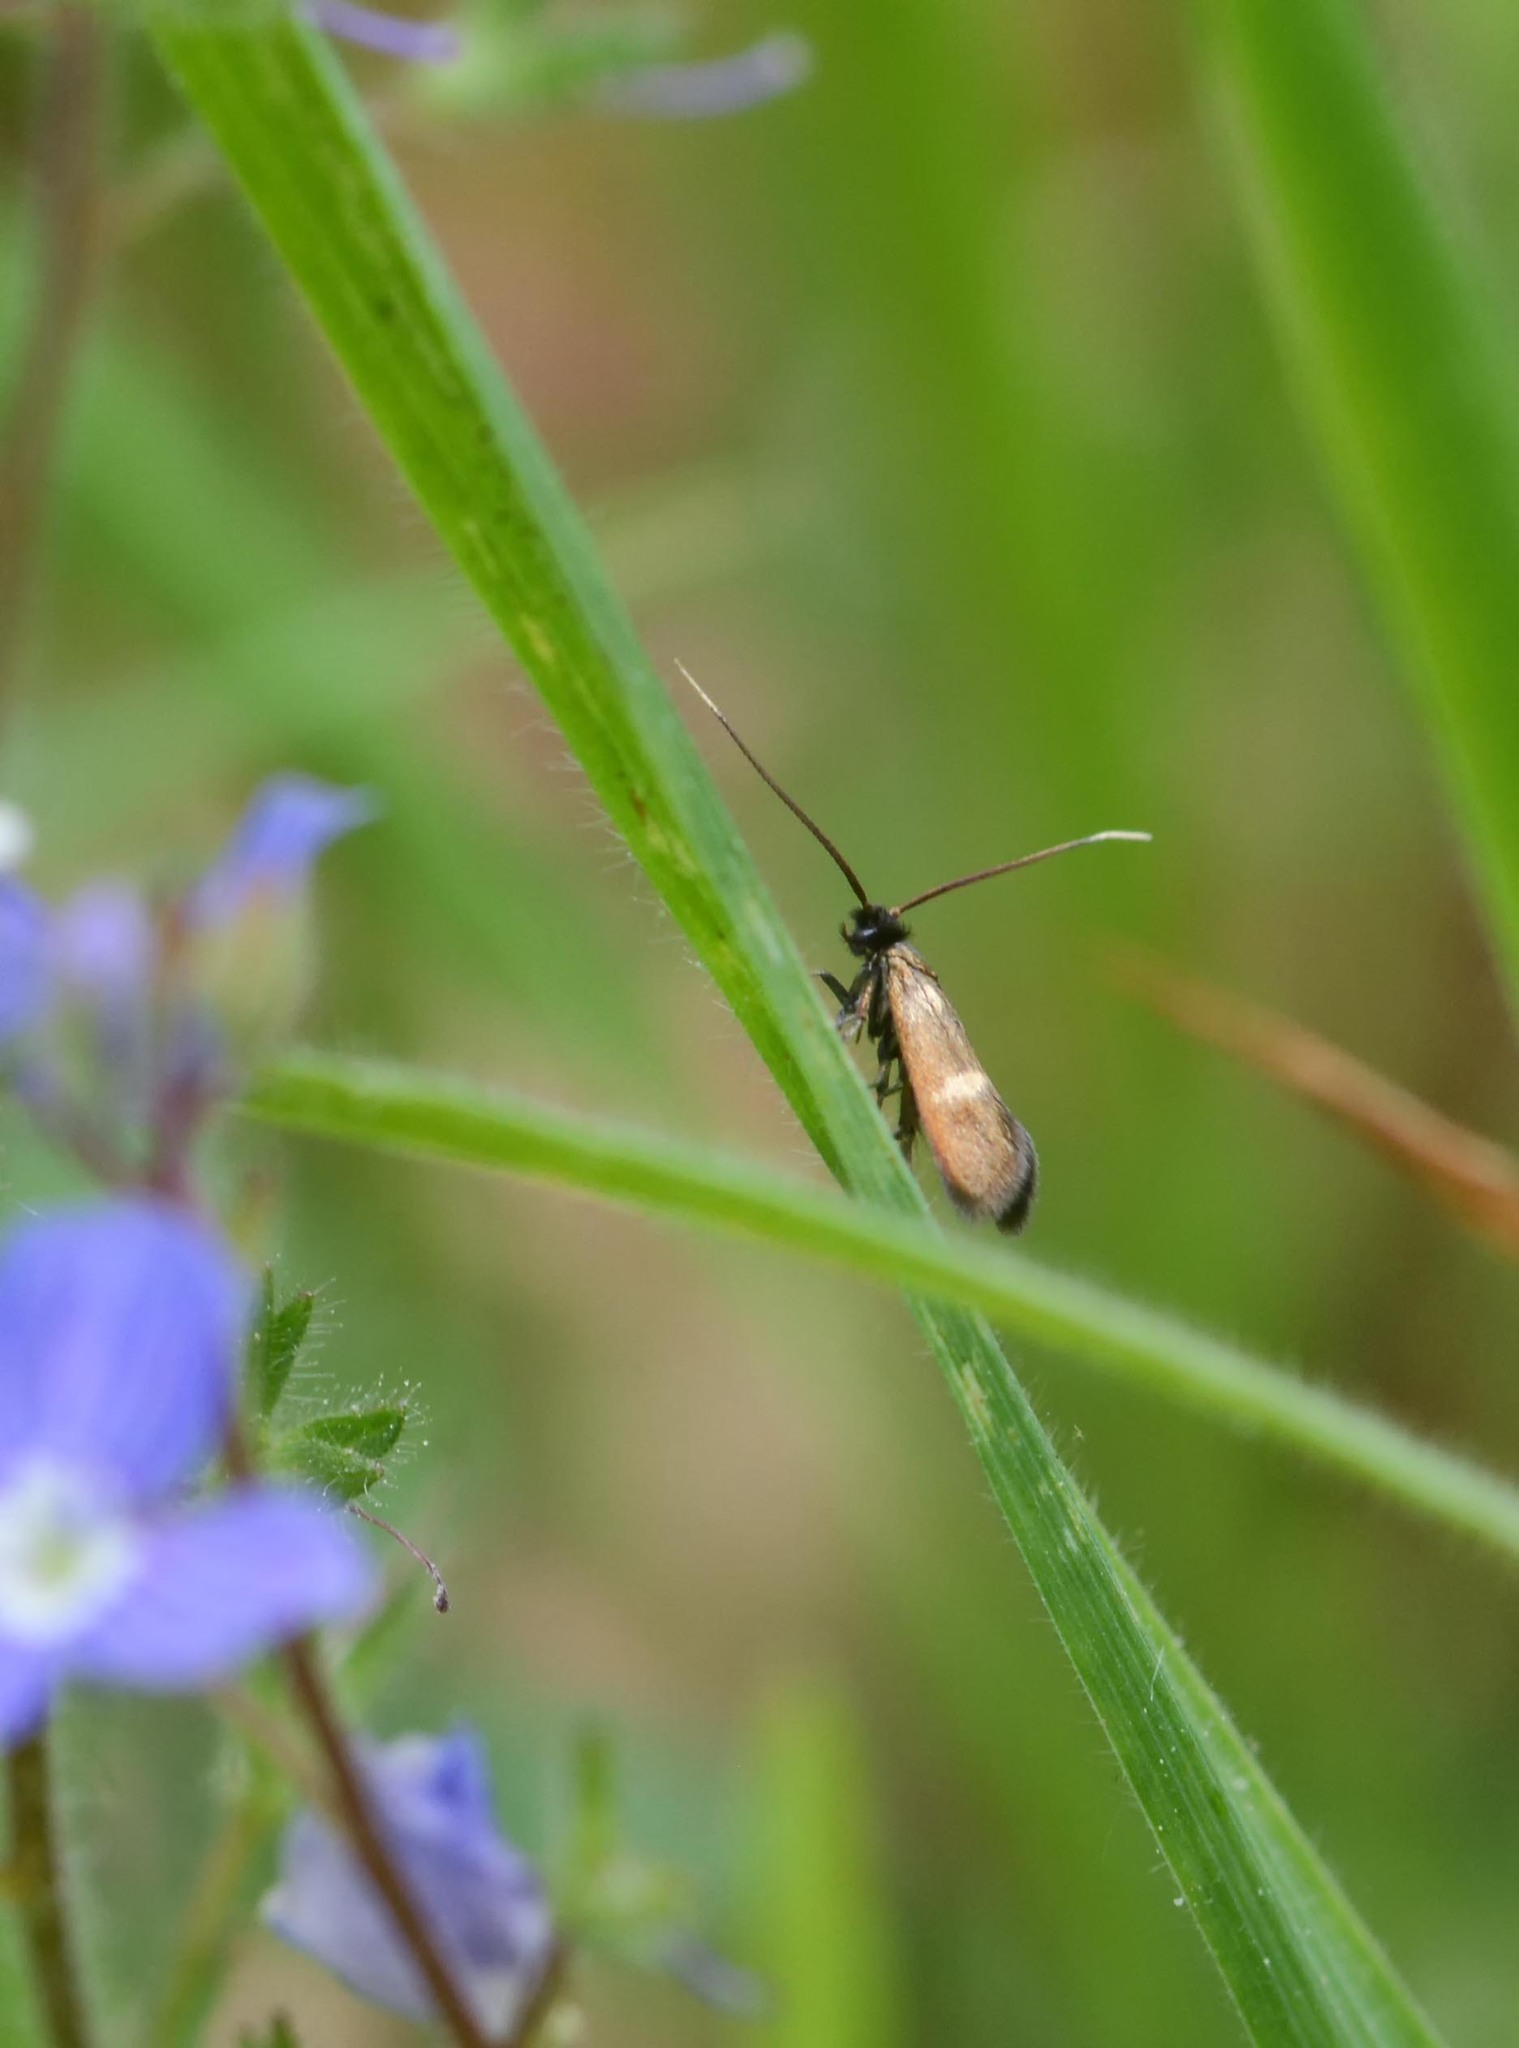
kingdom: Animalia
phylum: Arthropoda
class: Insecta
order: Lepidoptera
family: Adelidae
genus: Cauchas
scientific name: Cauchas fibulella
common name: Little long-horn
